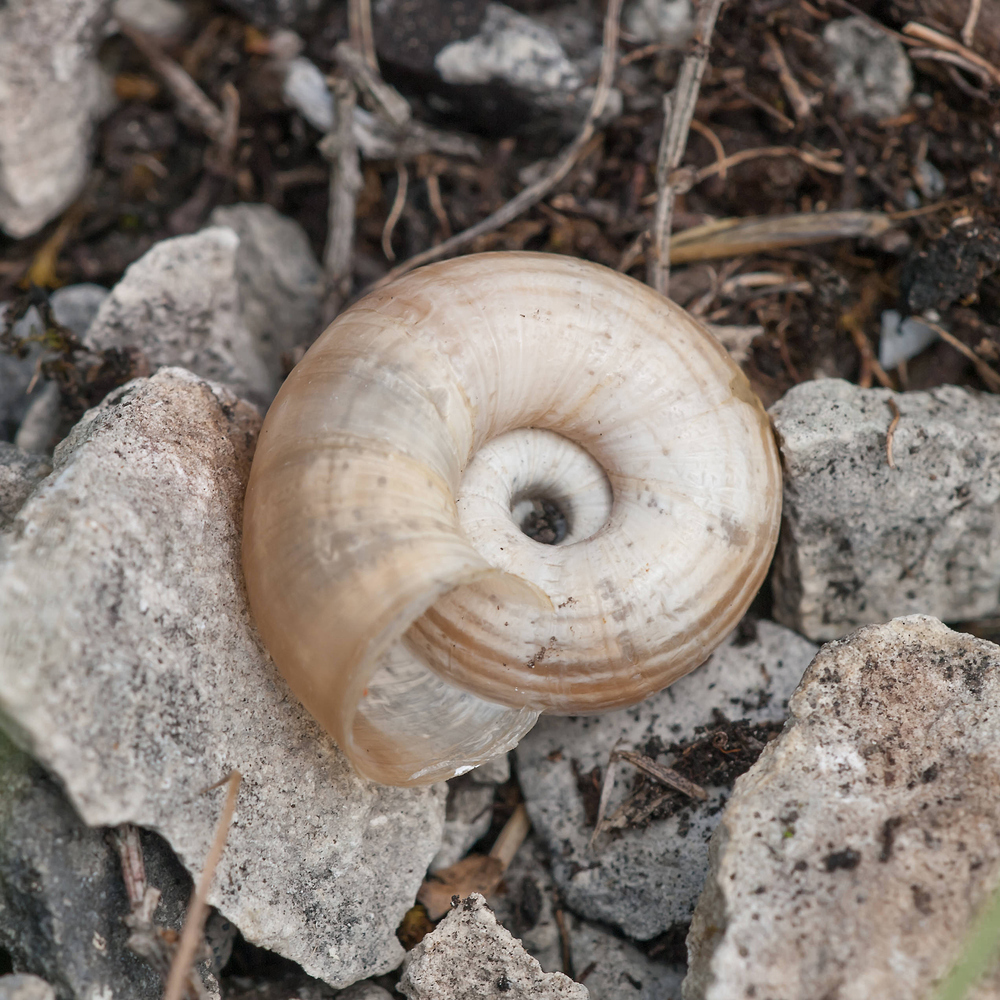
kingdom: Animalia
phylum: Mollusca
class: Gastropoda
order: Stylommatophora
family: Geomitridae
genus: Helicella
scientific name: Helicella itala
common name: Heath snail
